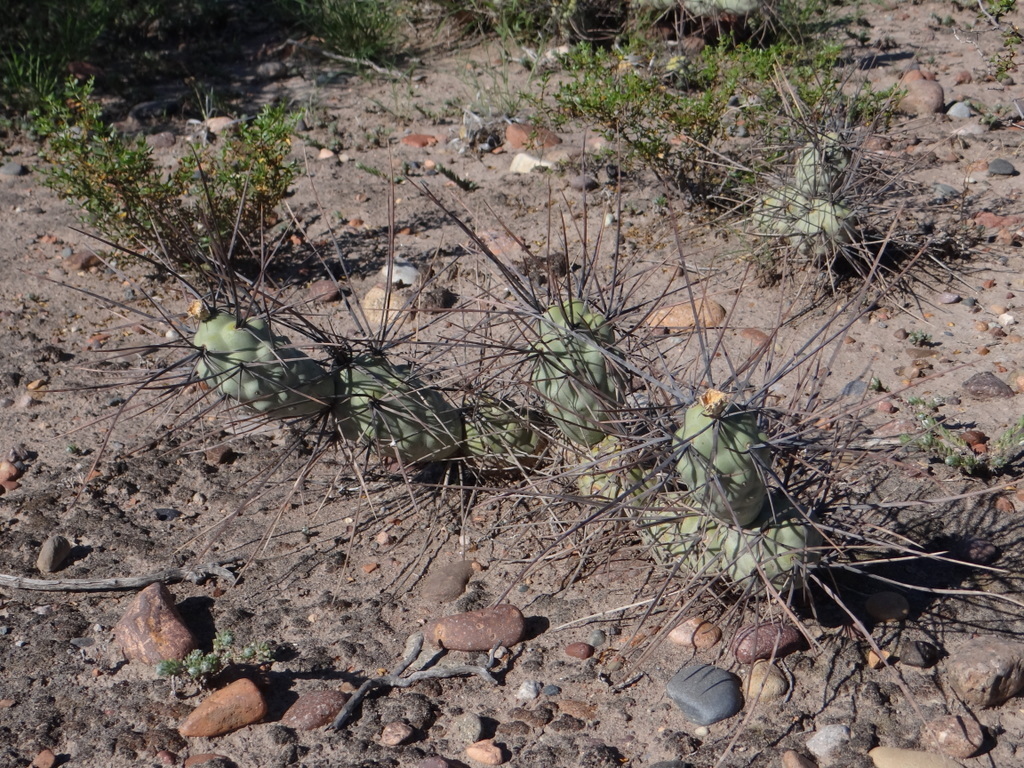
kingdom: Plantae
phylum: Tracheophyta
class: Magnoliopsida
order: Caryophyllales
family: Cactaceae
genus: Tephrocactus
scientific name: Tephrocactus aoracanthus
